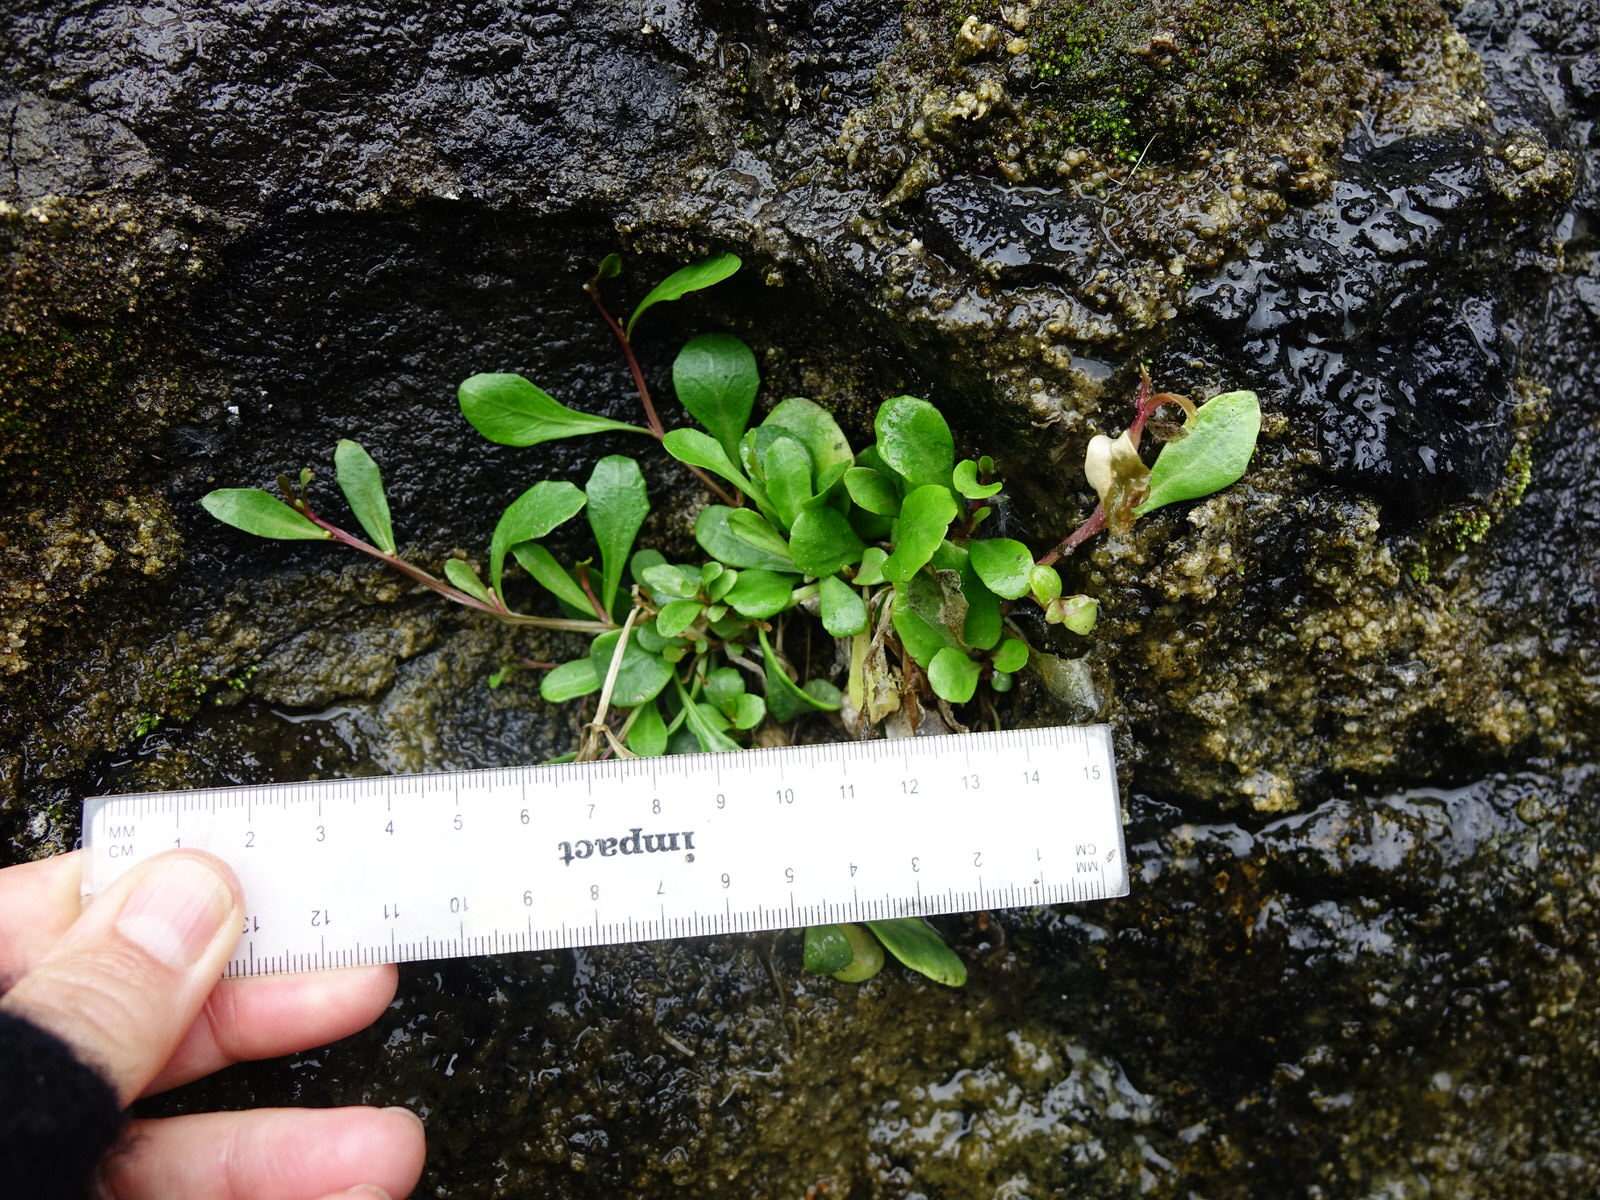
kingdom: Plantae
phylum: Tracheophyta
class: Magnoliopsida
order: Asterales
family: Campanulaceae
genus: Lobelia
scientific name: Lobelia anceps
